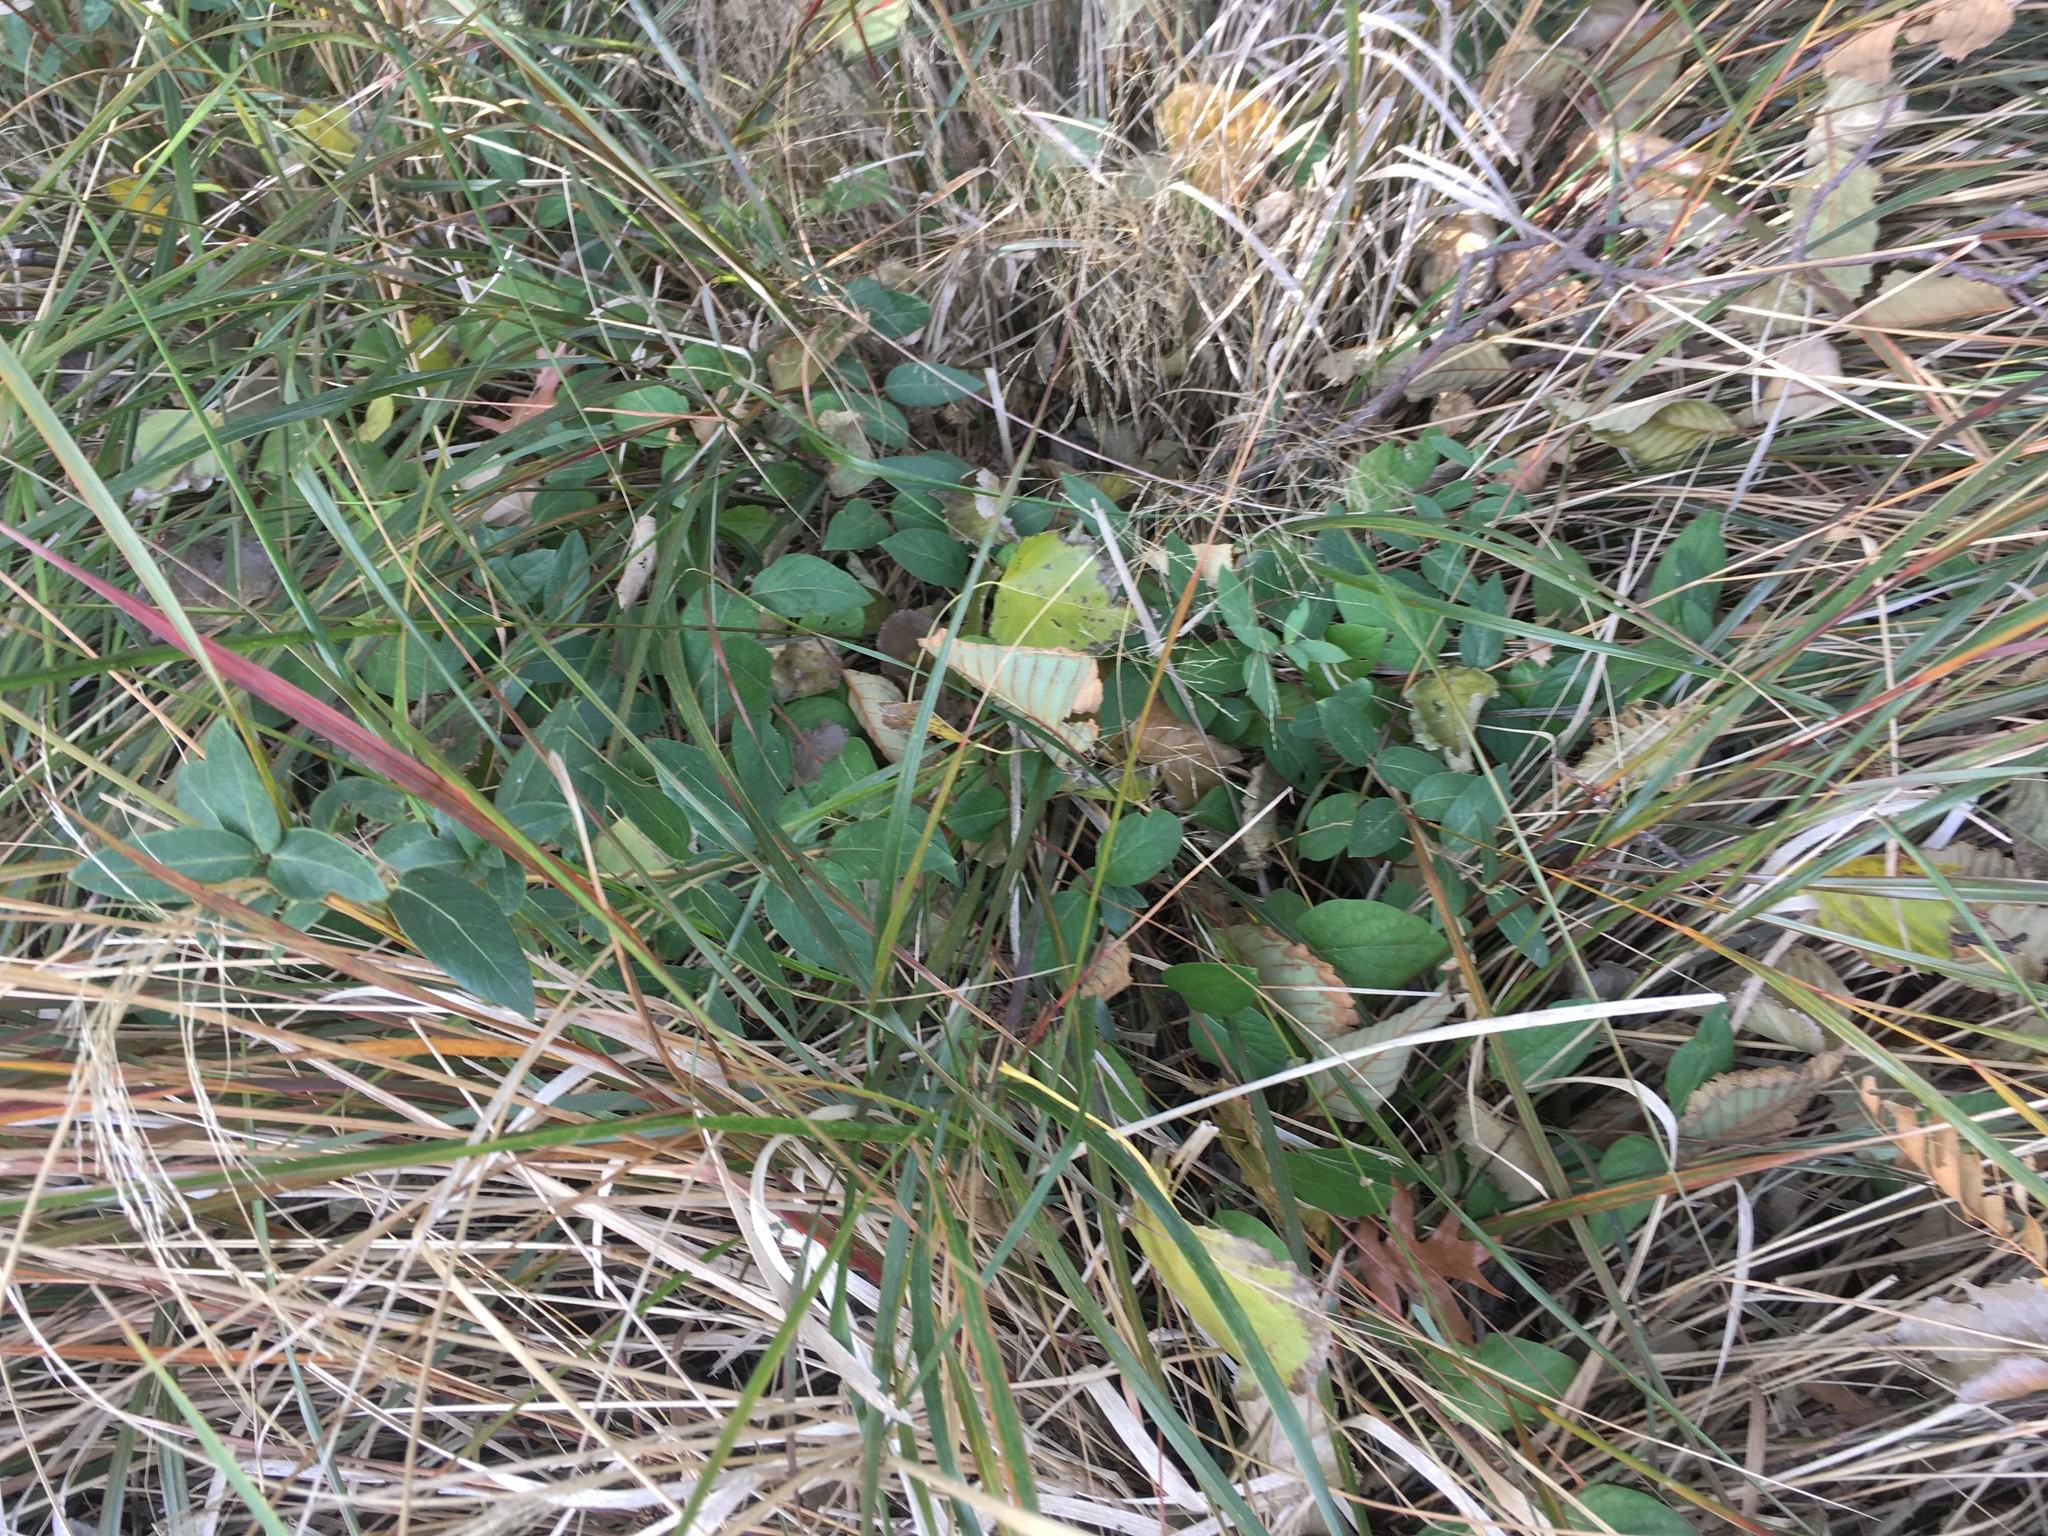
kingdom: Plantae
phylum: Tracheophyta
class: Magnoliopsida
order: Dipsacales
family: Caprifoliaceae
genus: Lonicera
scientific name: Lonicera japonica
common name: Japanese honeysuckle
